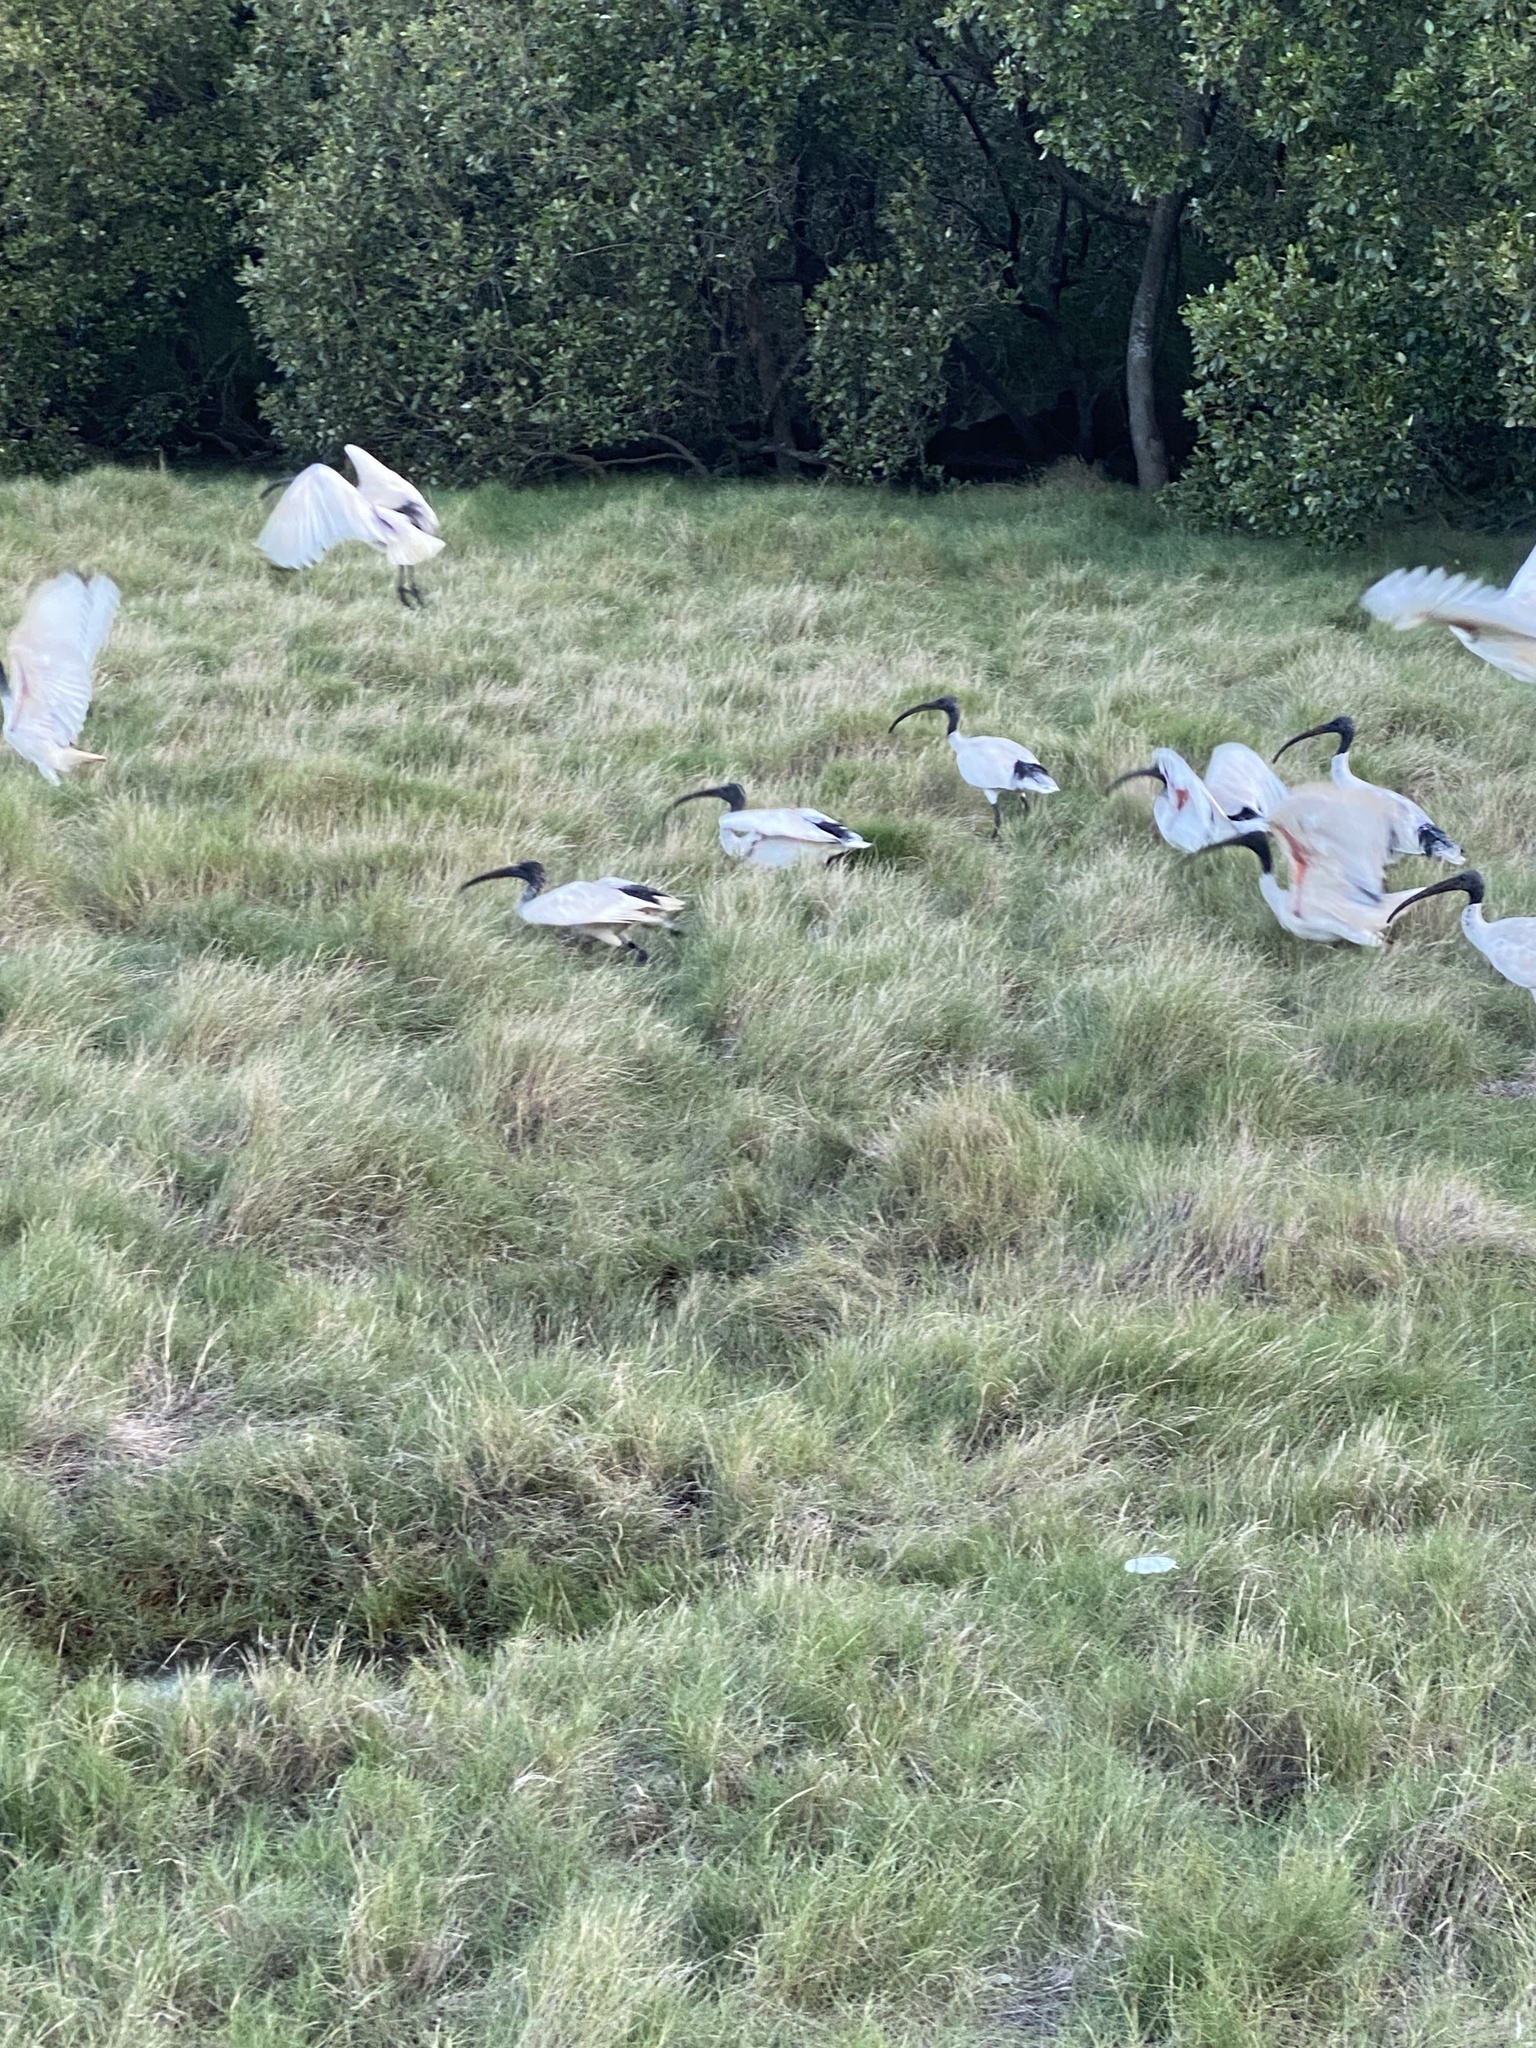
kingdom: Animalia
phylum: Chordata
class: Aves
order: Pelecaniformes
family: Threskiornithidae
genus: Threskiornis
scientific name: Threskiornis molucca
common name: Australian white ibis
